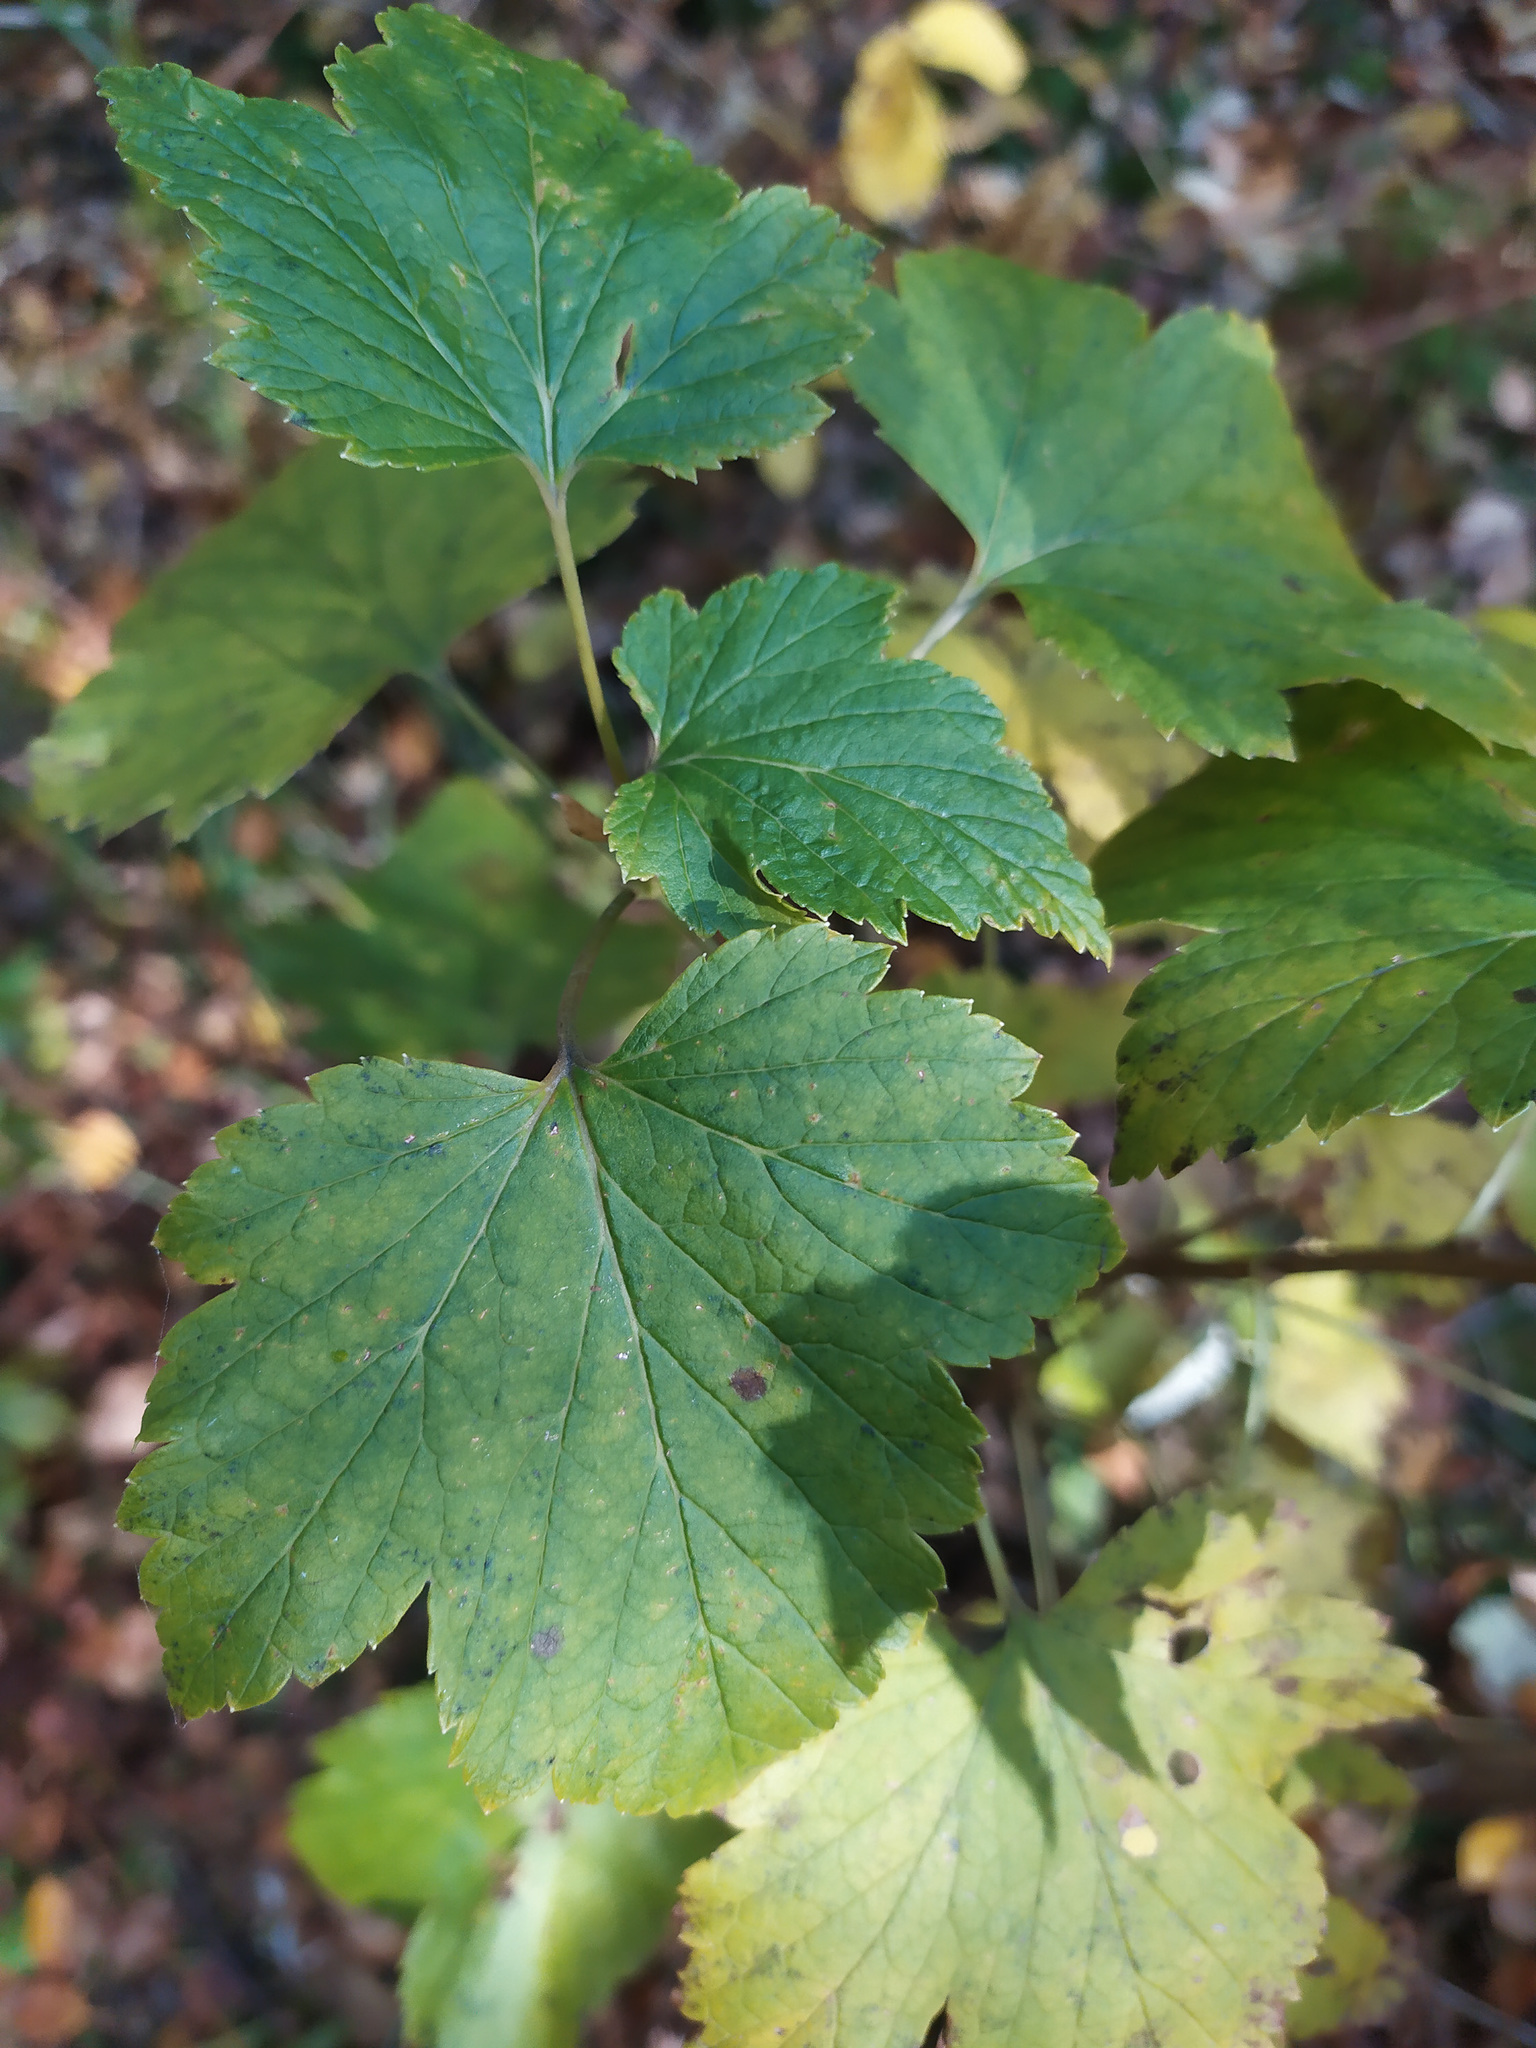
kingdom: Plantae
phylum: Tracheophyta
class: Magnoliopsida
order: Saxifragales
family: Grossulariaceae
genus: Ribes
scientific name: Ribes nigrum
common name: Black currant
